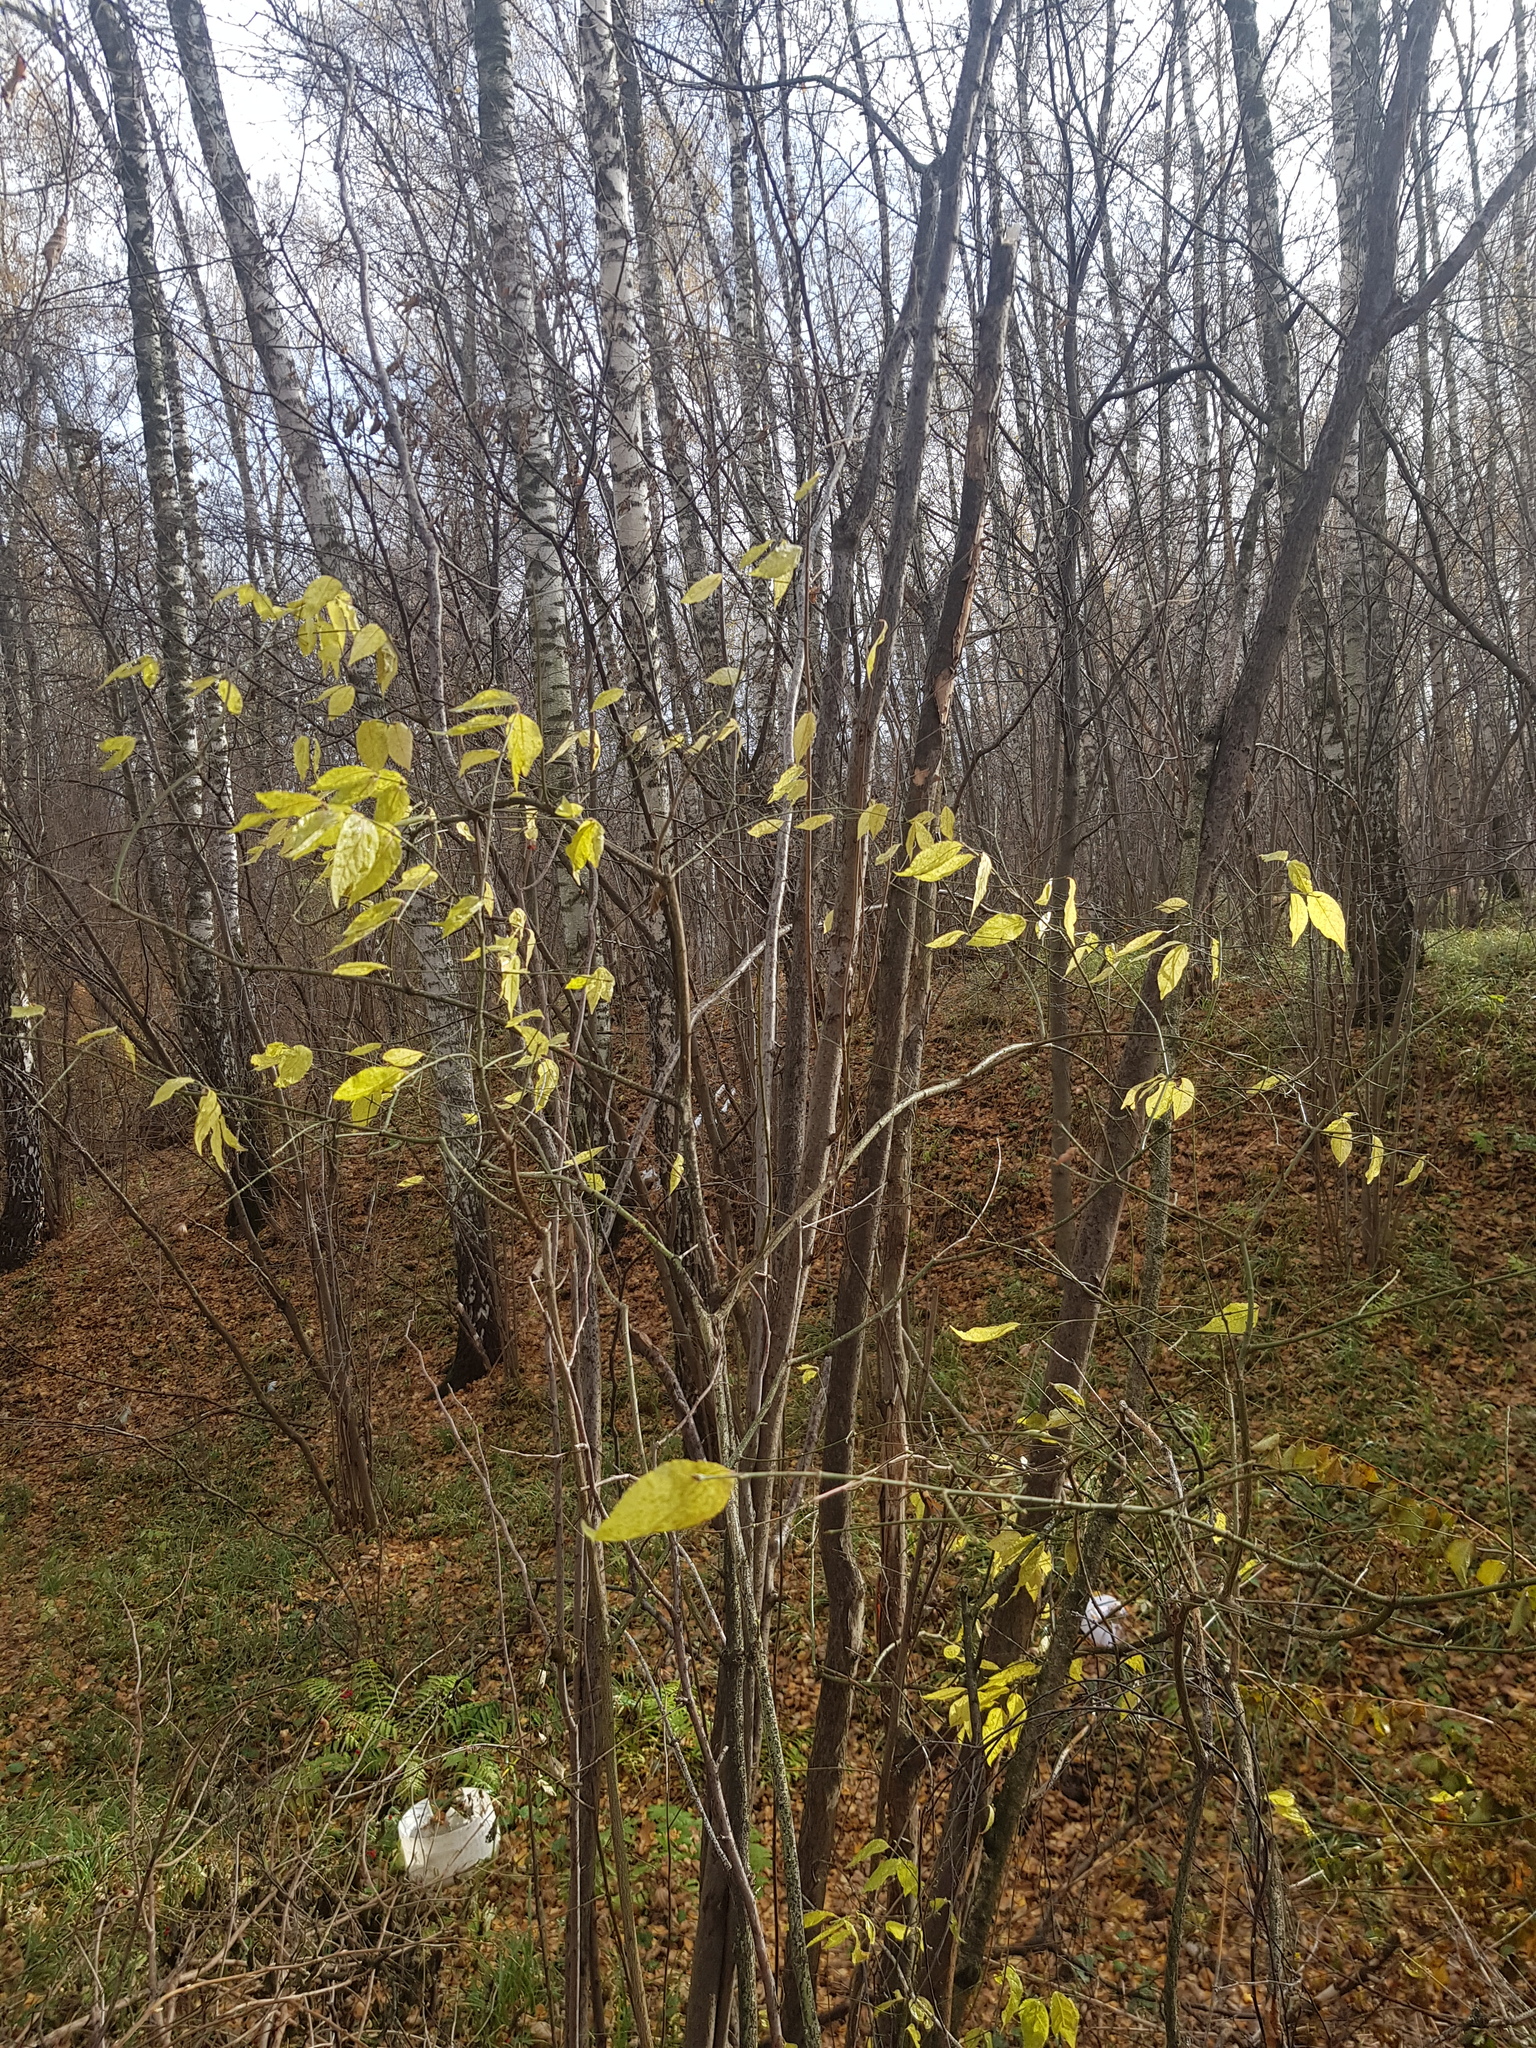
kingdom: Plantae
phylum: Tracheophyta
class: Magnoliopsida
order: Celastrales
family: Celastraceae
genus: Euonymus
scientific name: Euonymus verrucosus
